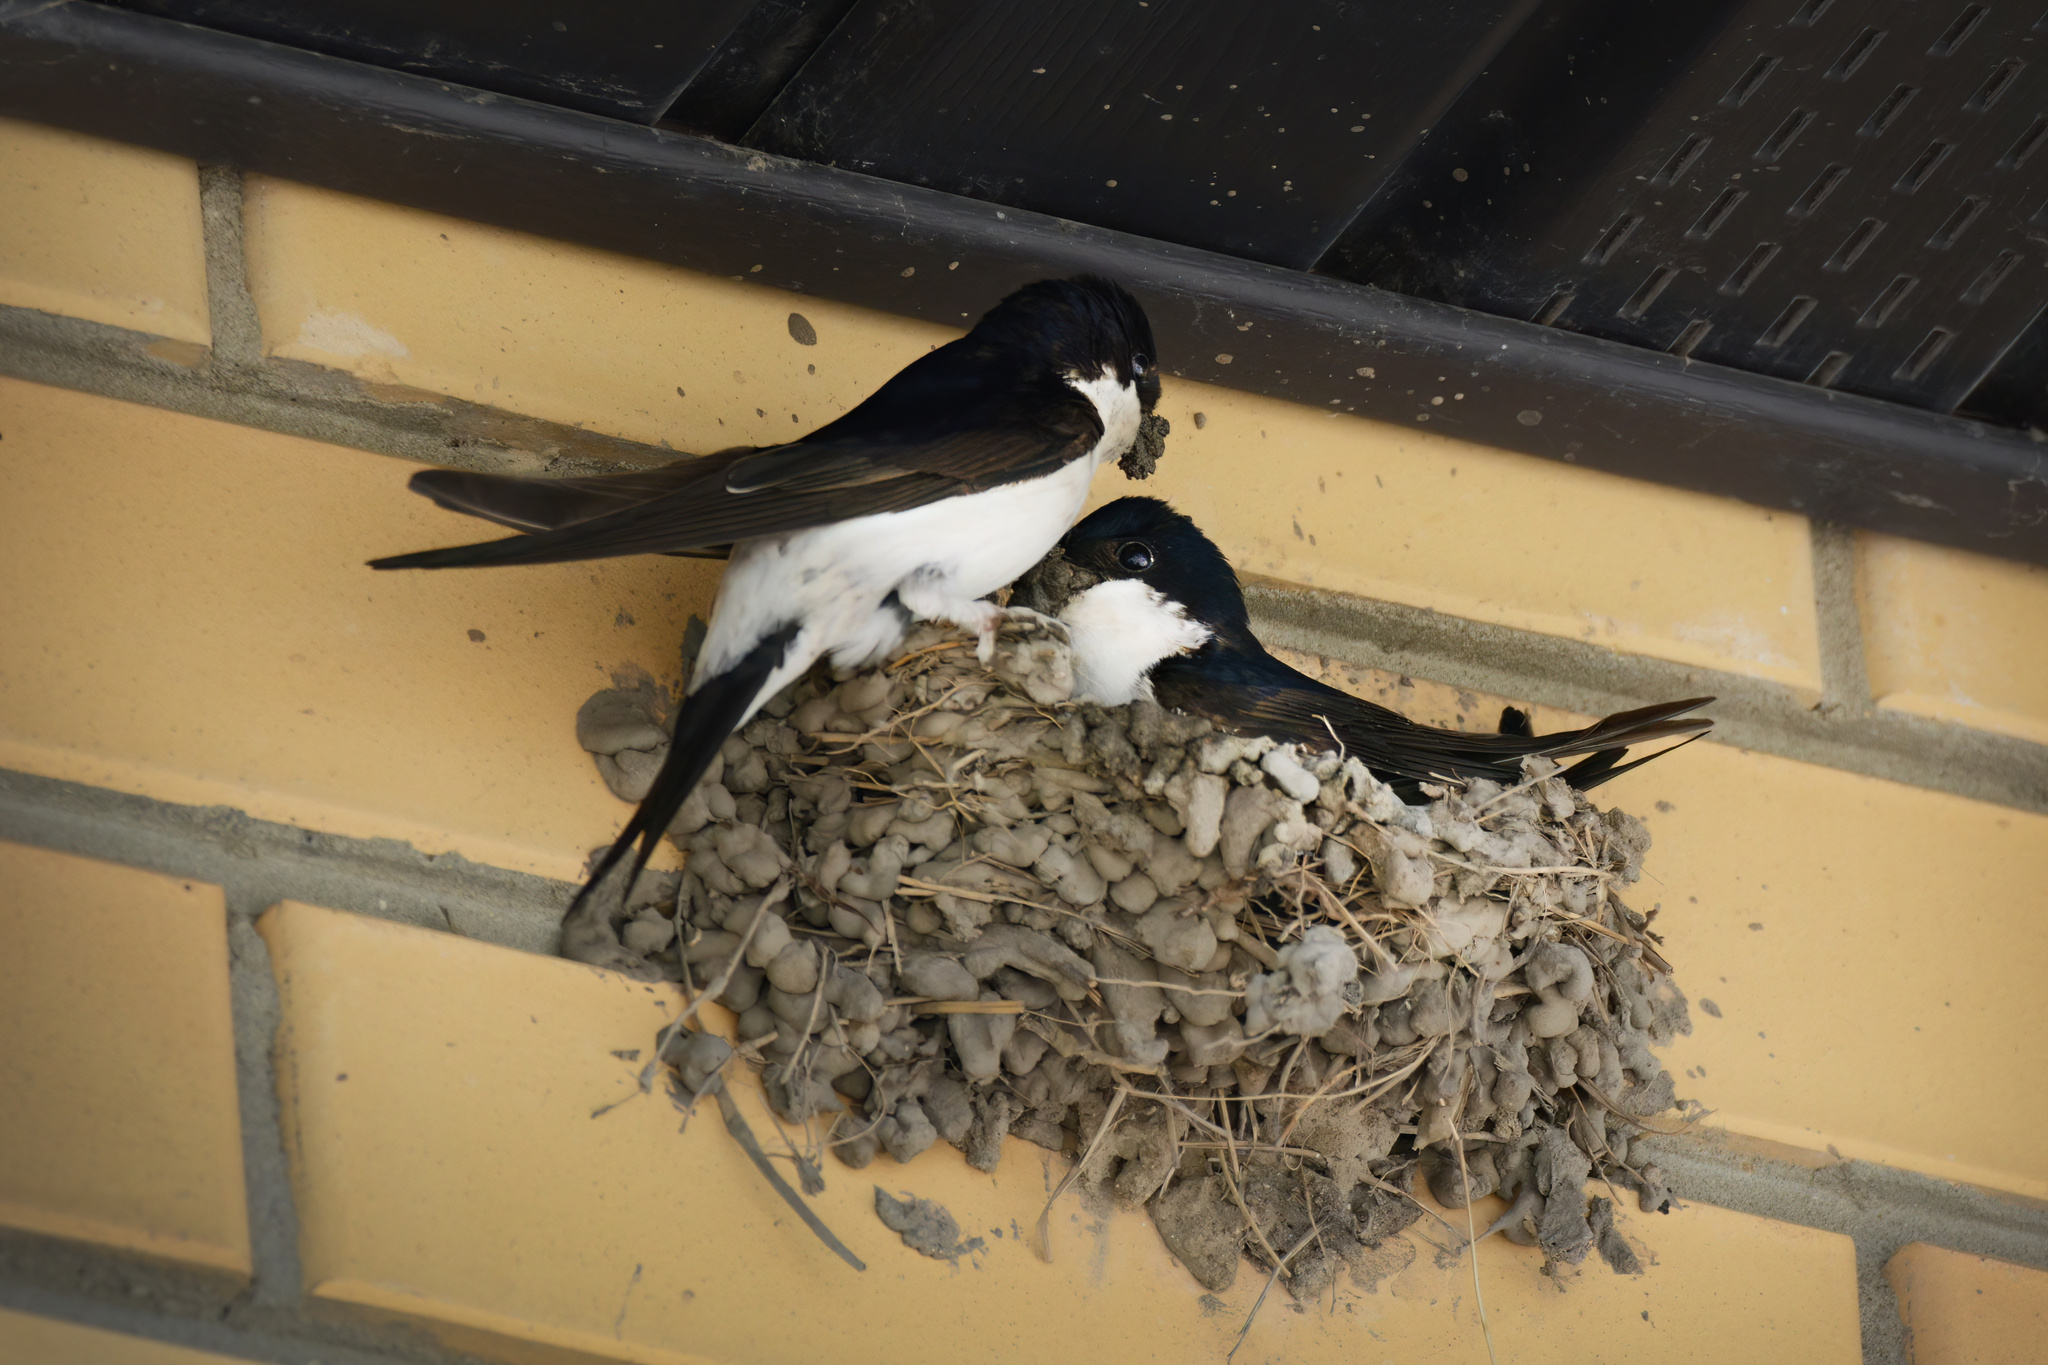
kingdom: Animalia
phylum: Chordata
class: Aves
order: Passeriformes
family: Hirundinidae
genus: Delichon
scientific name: Delichon urbicum
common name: Common house martin
